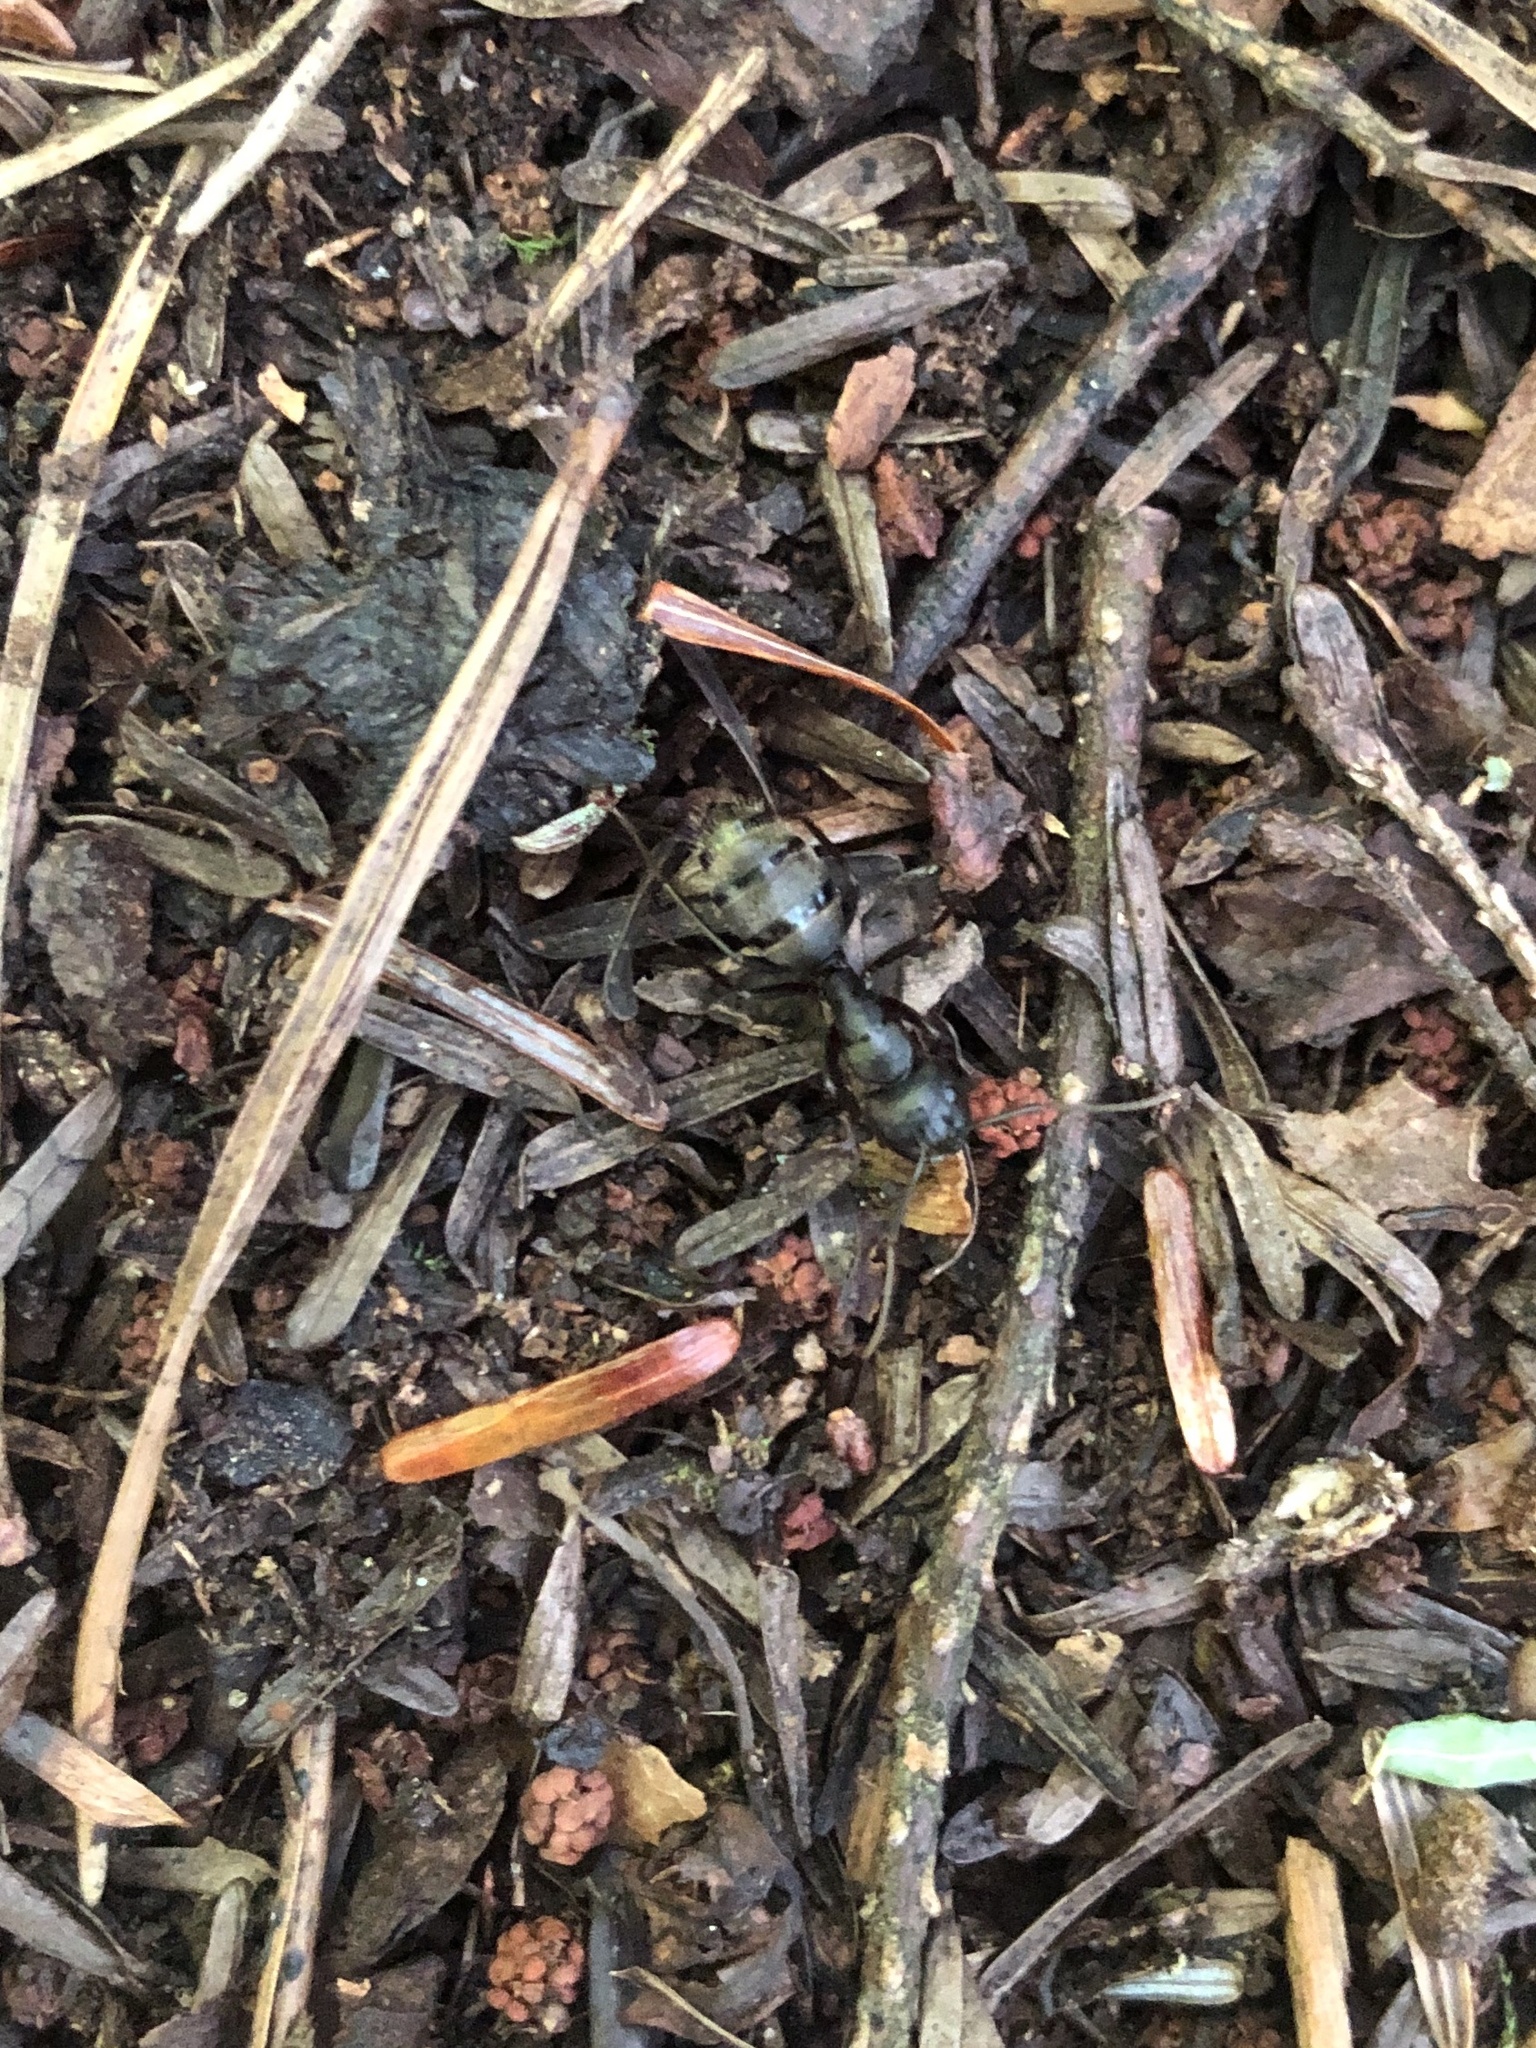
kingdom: Animalia
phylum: Arthropoda
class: Insecta
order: Hymenoptera
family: Formicidae
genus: Camponotus
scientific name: Camponotus pennsylvanicus
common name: Black carpenter ant
